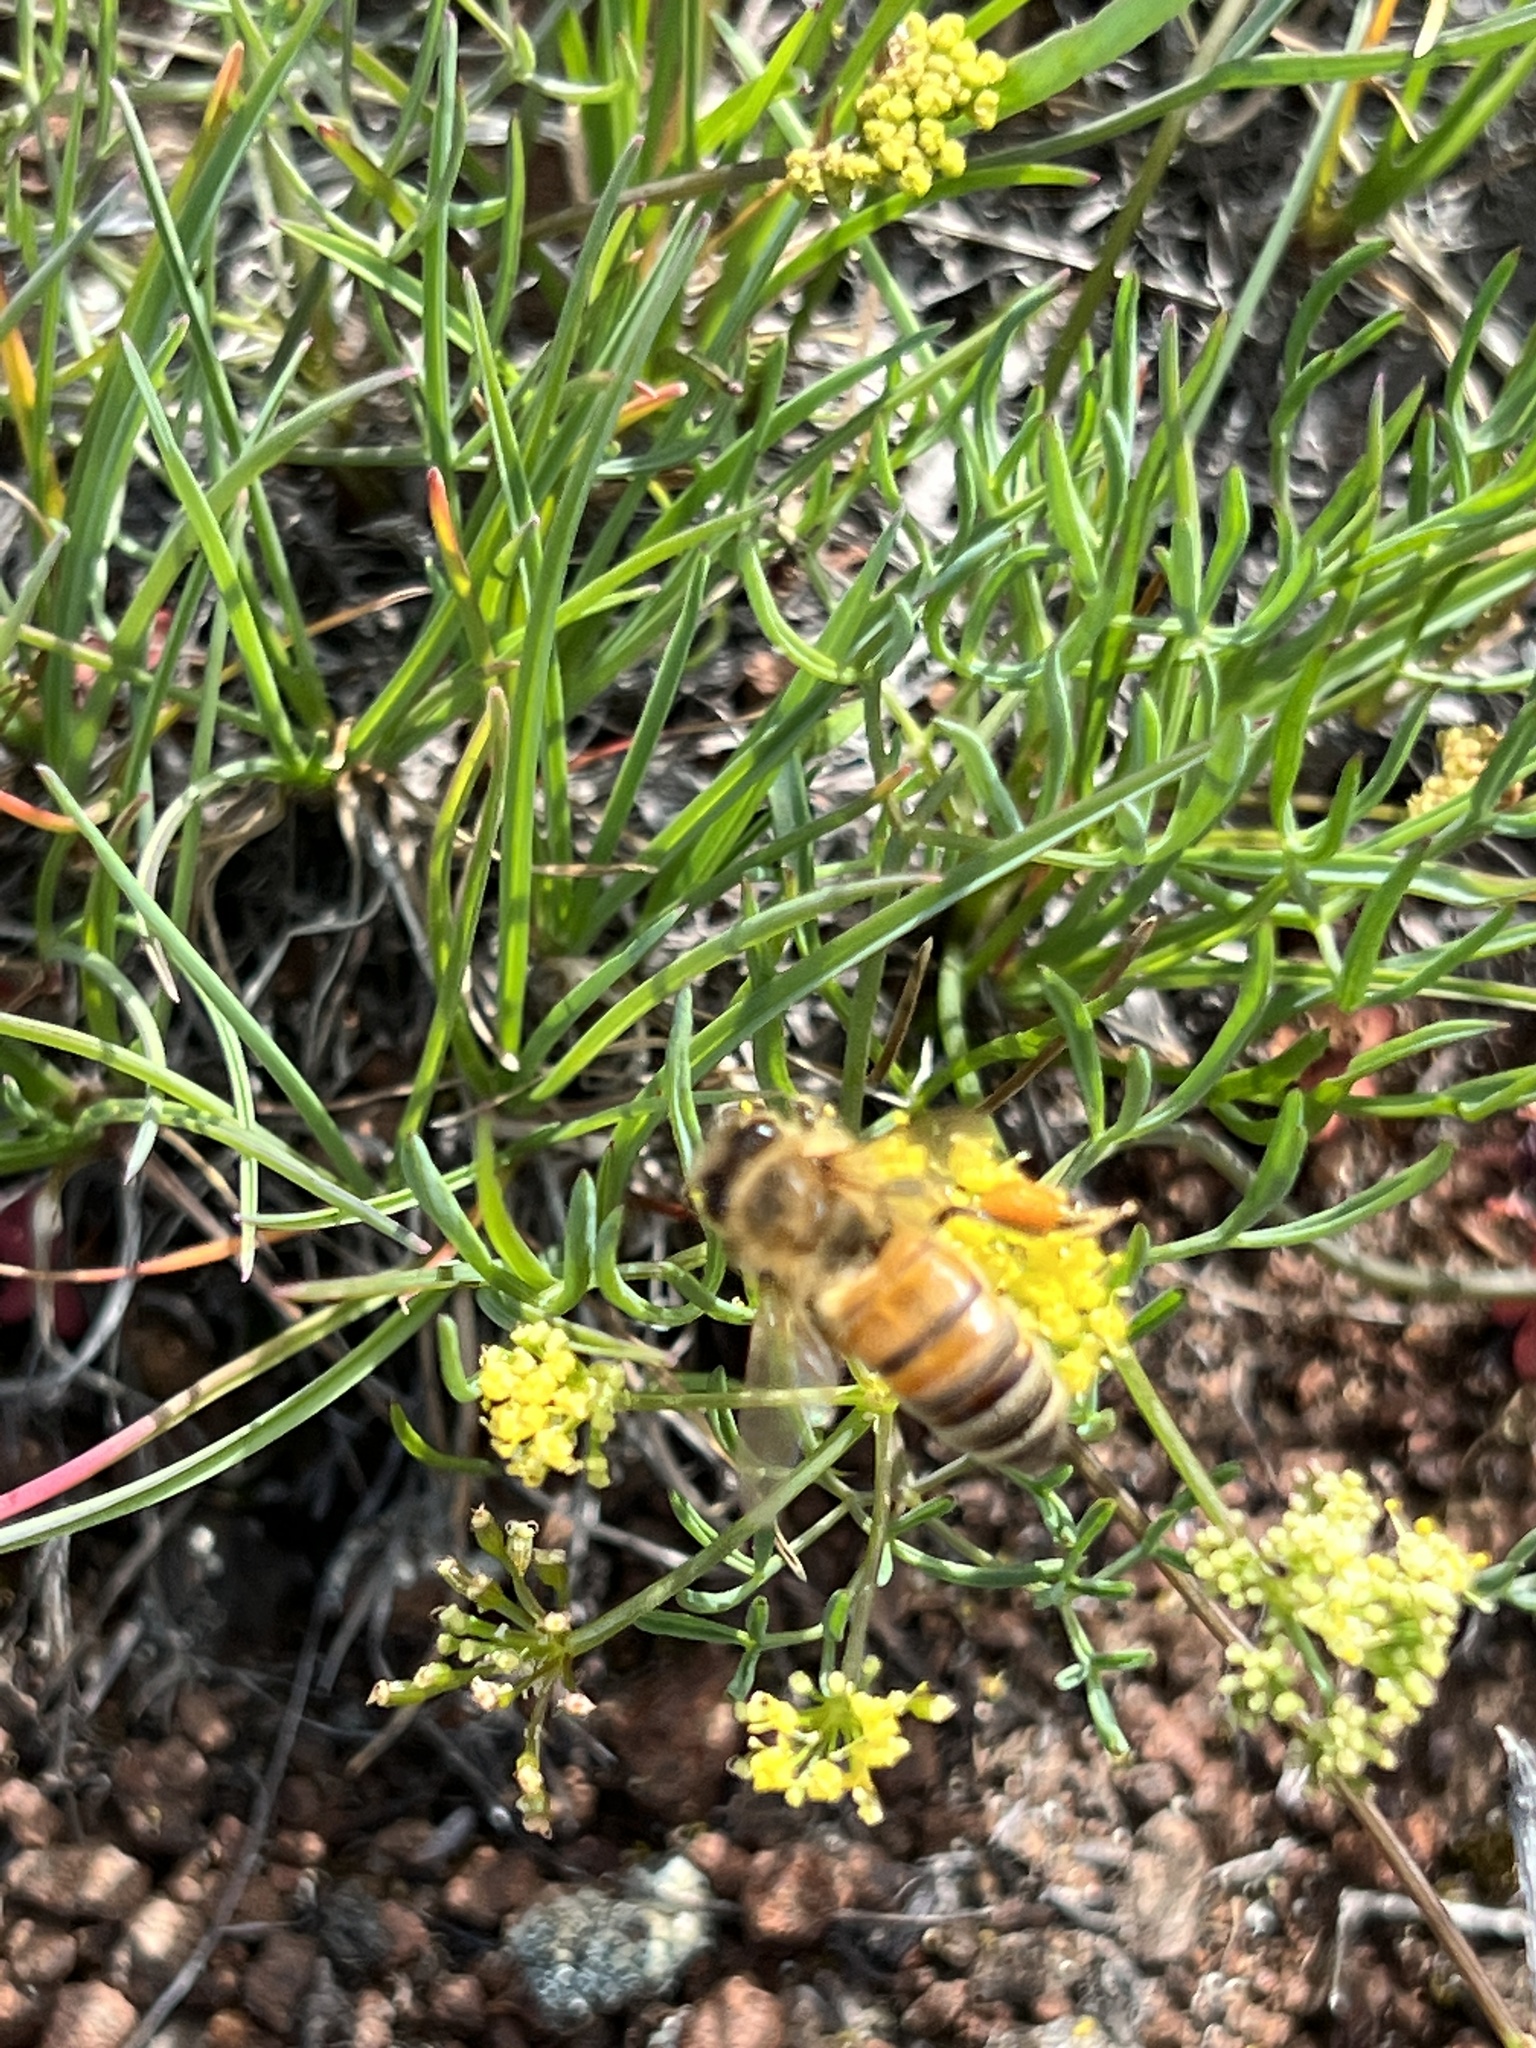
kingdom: Animalia
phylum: Arthropoda
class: Insecta
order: Hymenoptera
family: Apidae
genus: Apis
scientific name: Apis mellifera
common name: Honey bee
